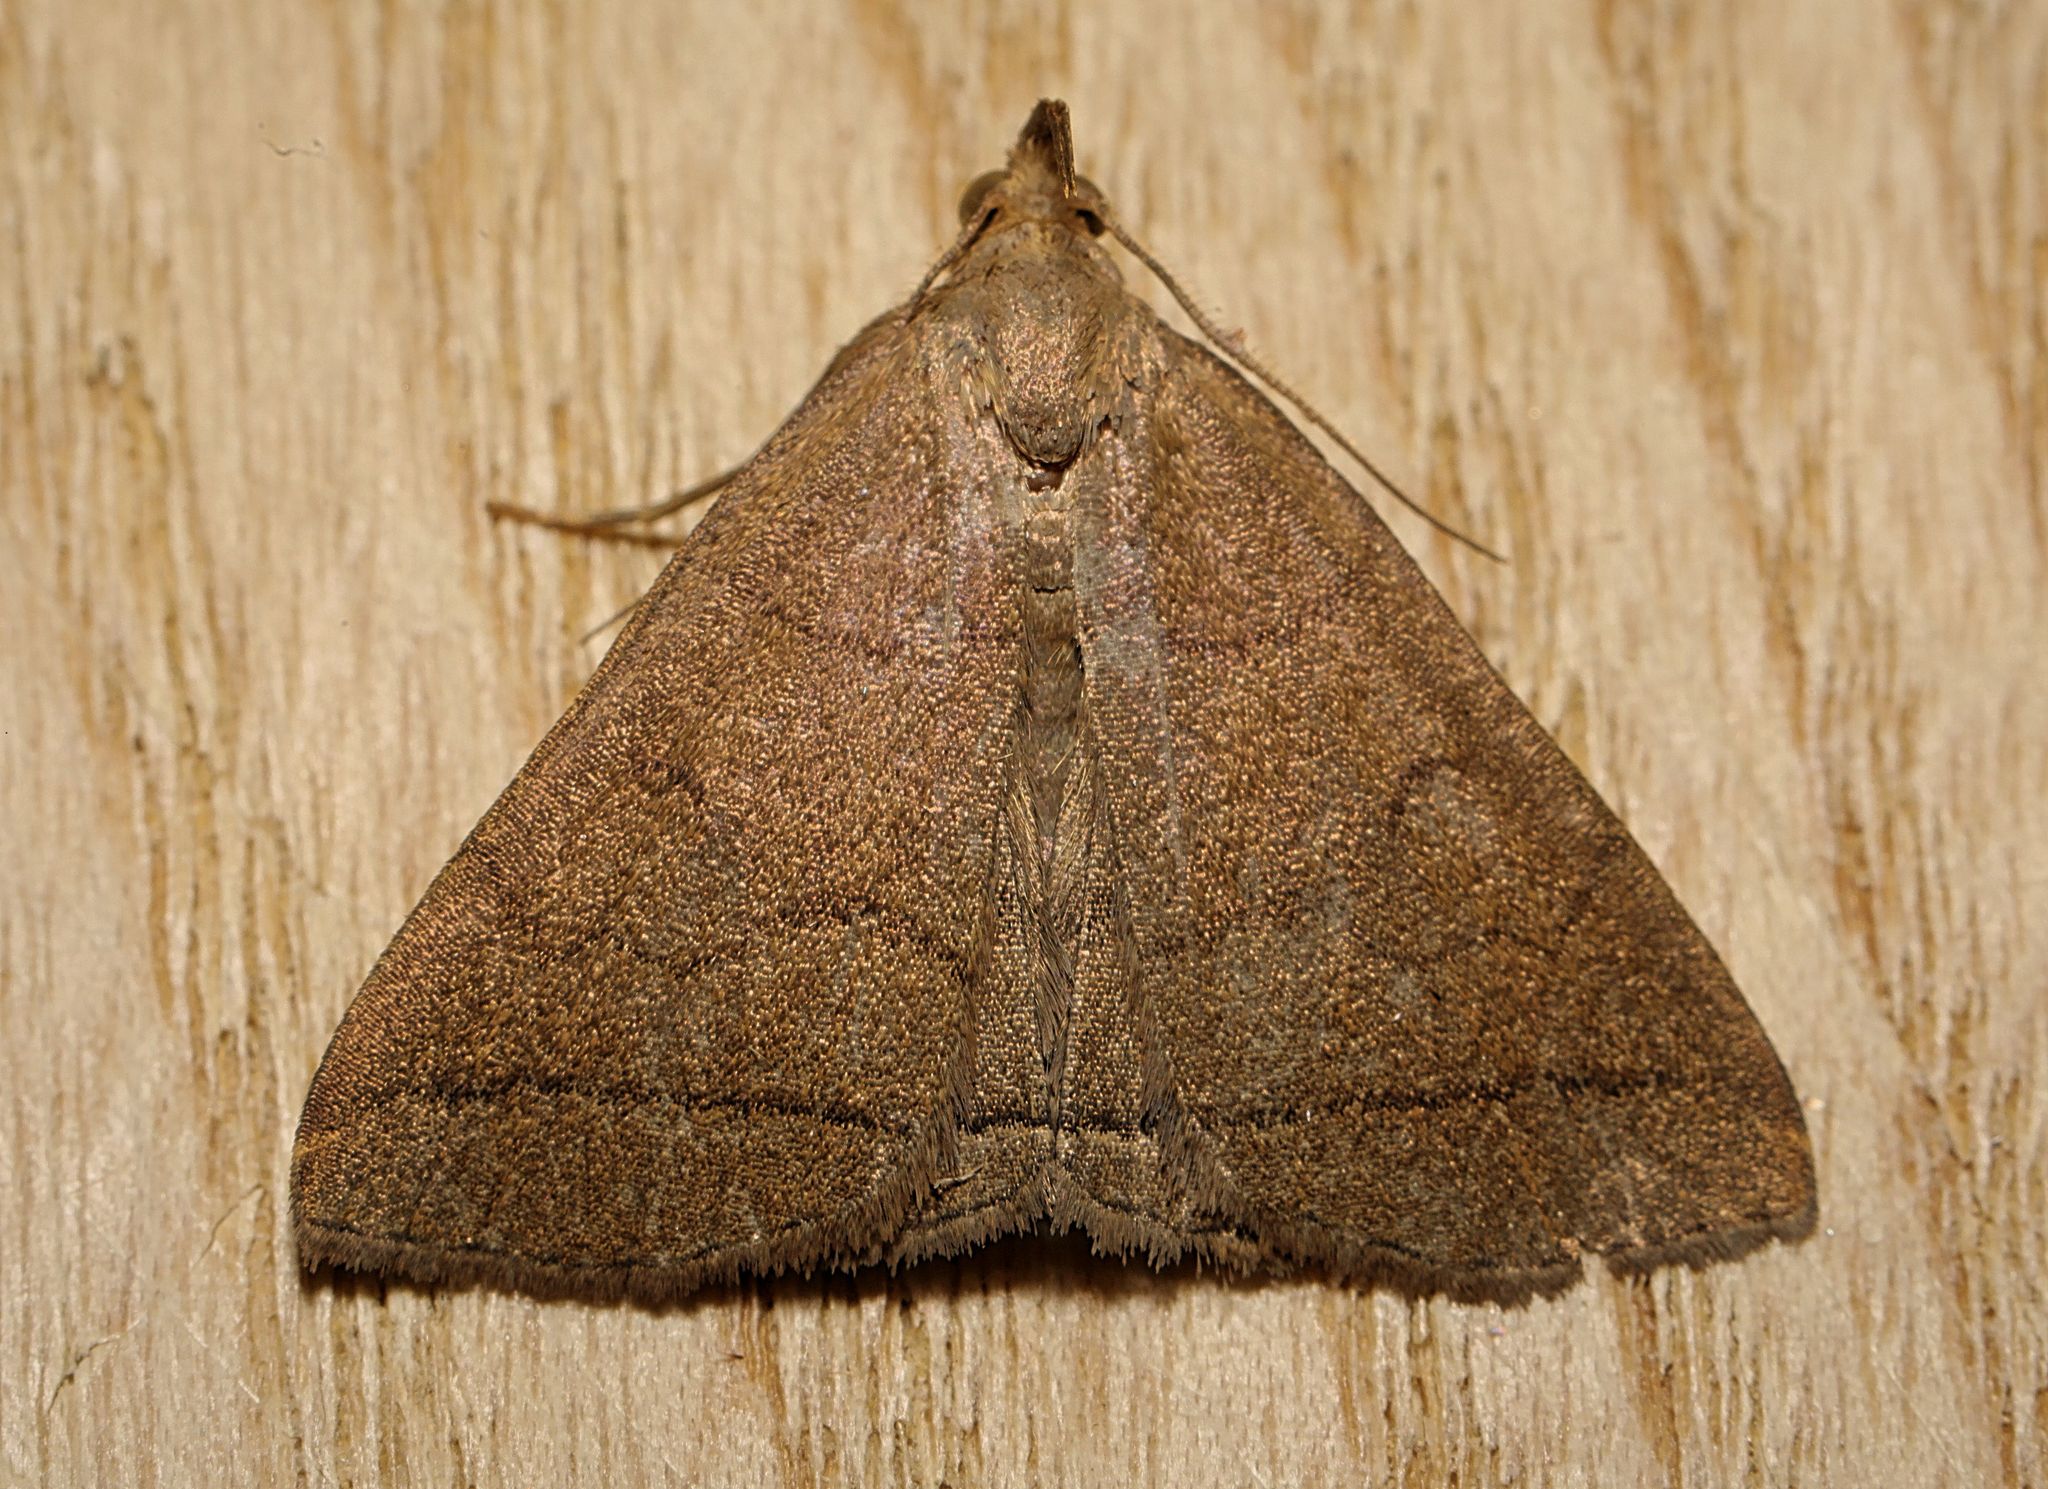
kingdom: Animalia
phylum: Arthropoda
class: Insecta
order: Lepidoptera
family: Erebidae
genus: Herminia
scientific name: Herminia tarsipennalis
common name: Fan-foot
